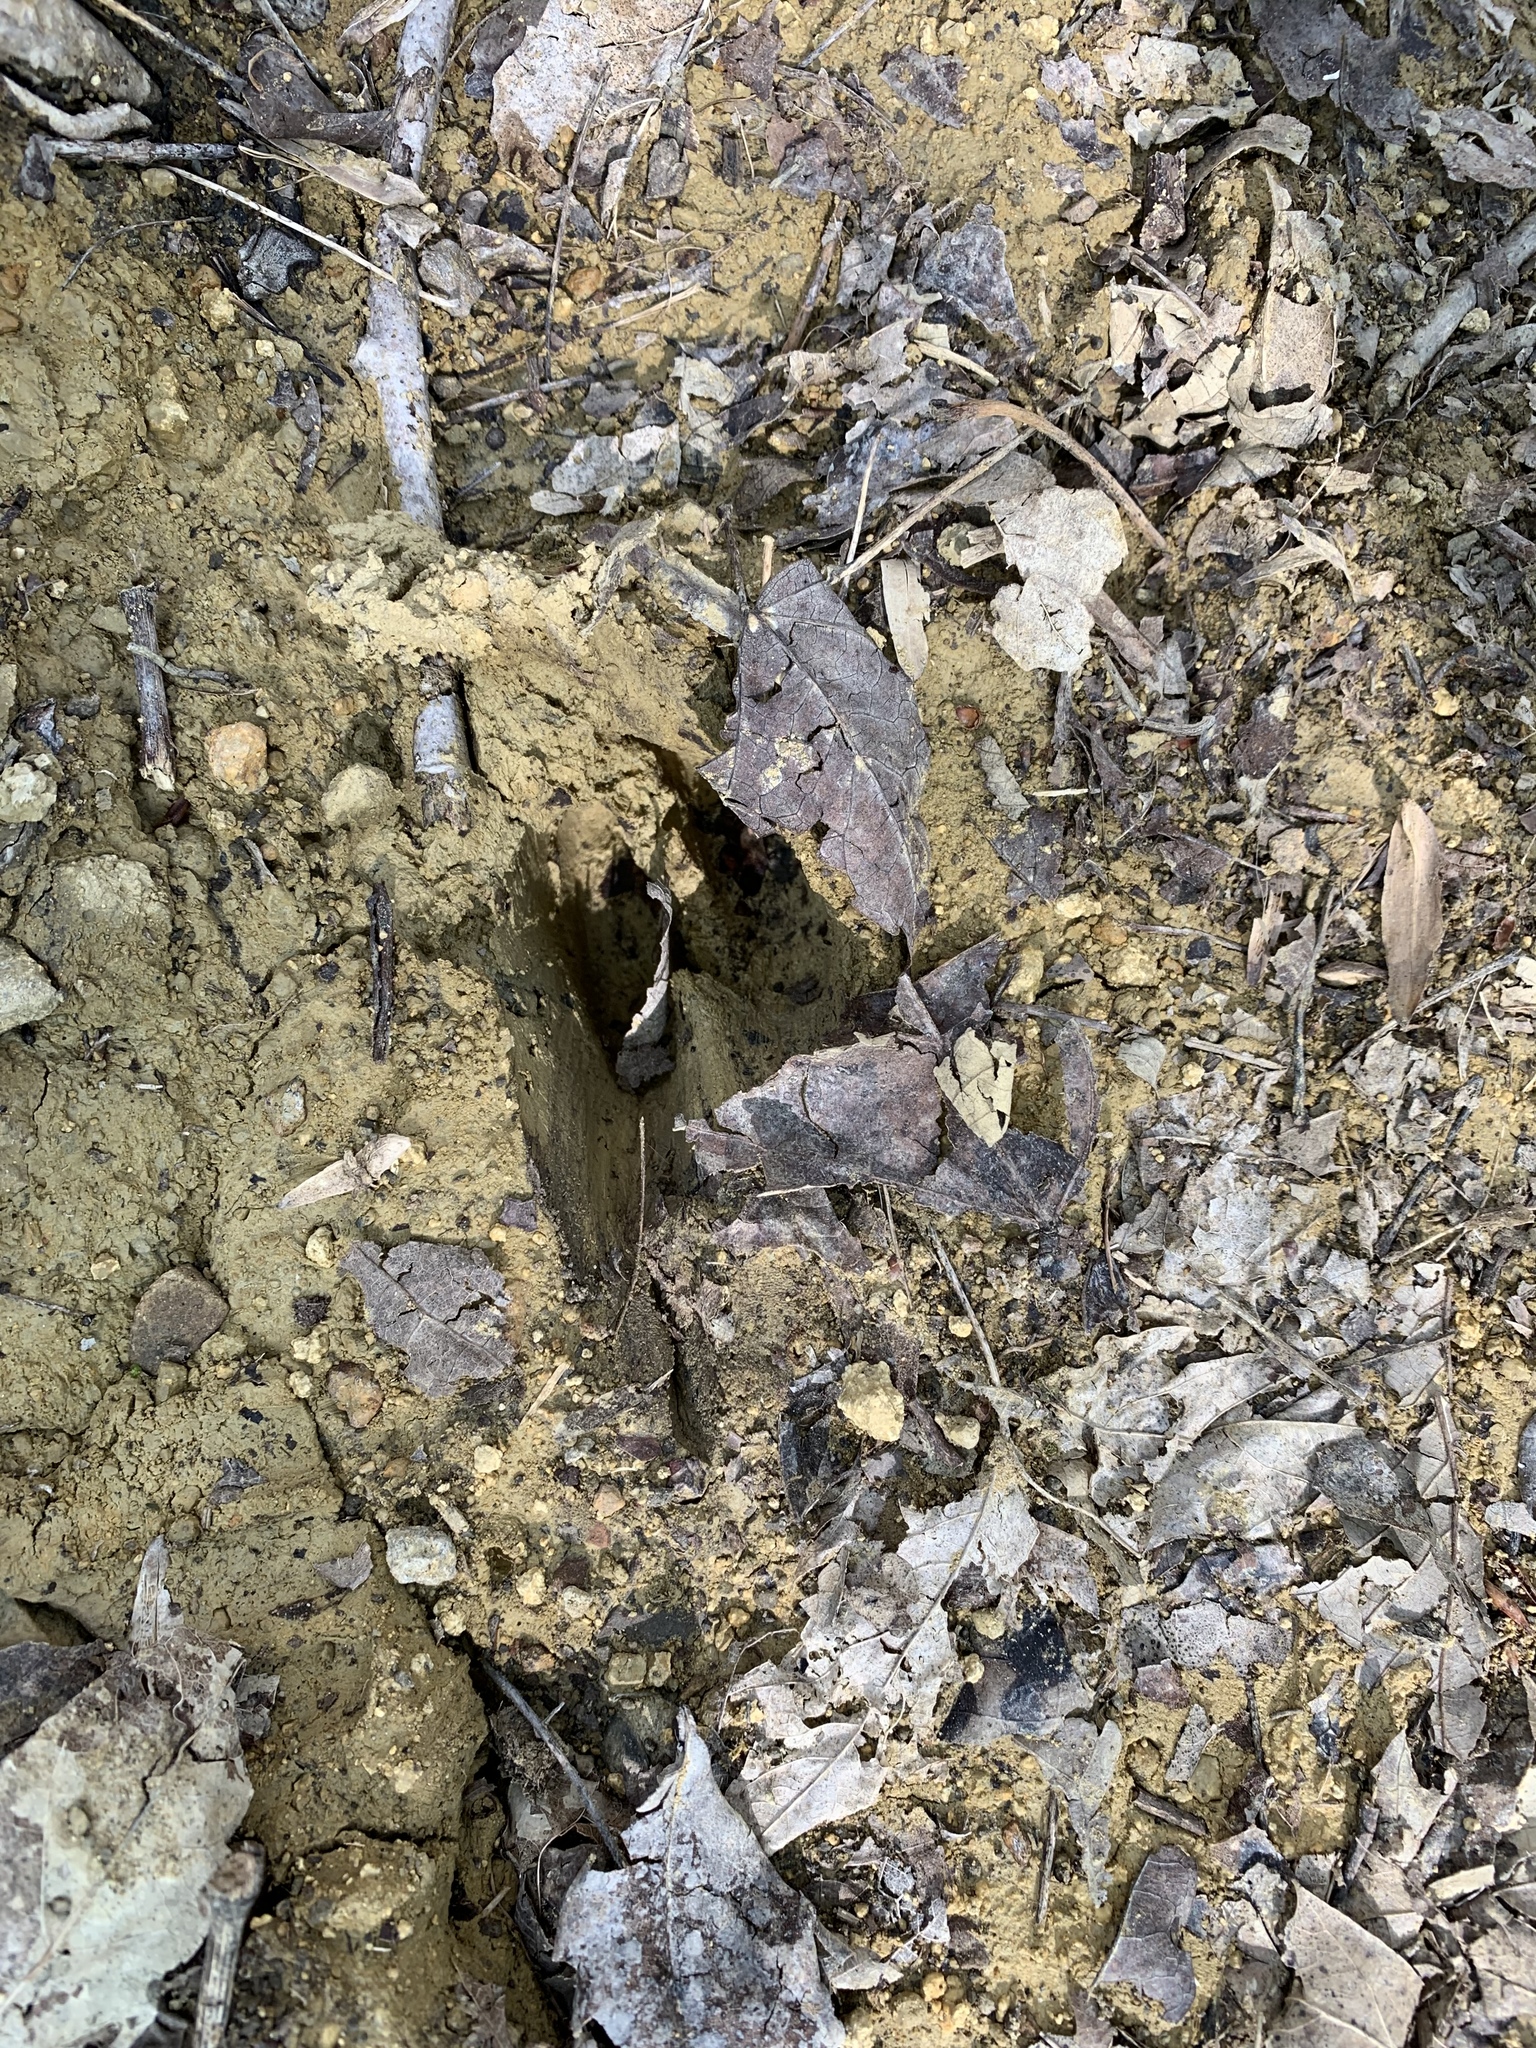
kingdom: Animalia
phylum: Chordata
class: Mammalia
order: Artiodactyla
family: Cervidae
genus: Odocoileus
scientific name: Odocoileus virginianus
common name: White-tailed deer
